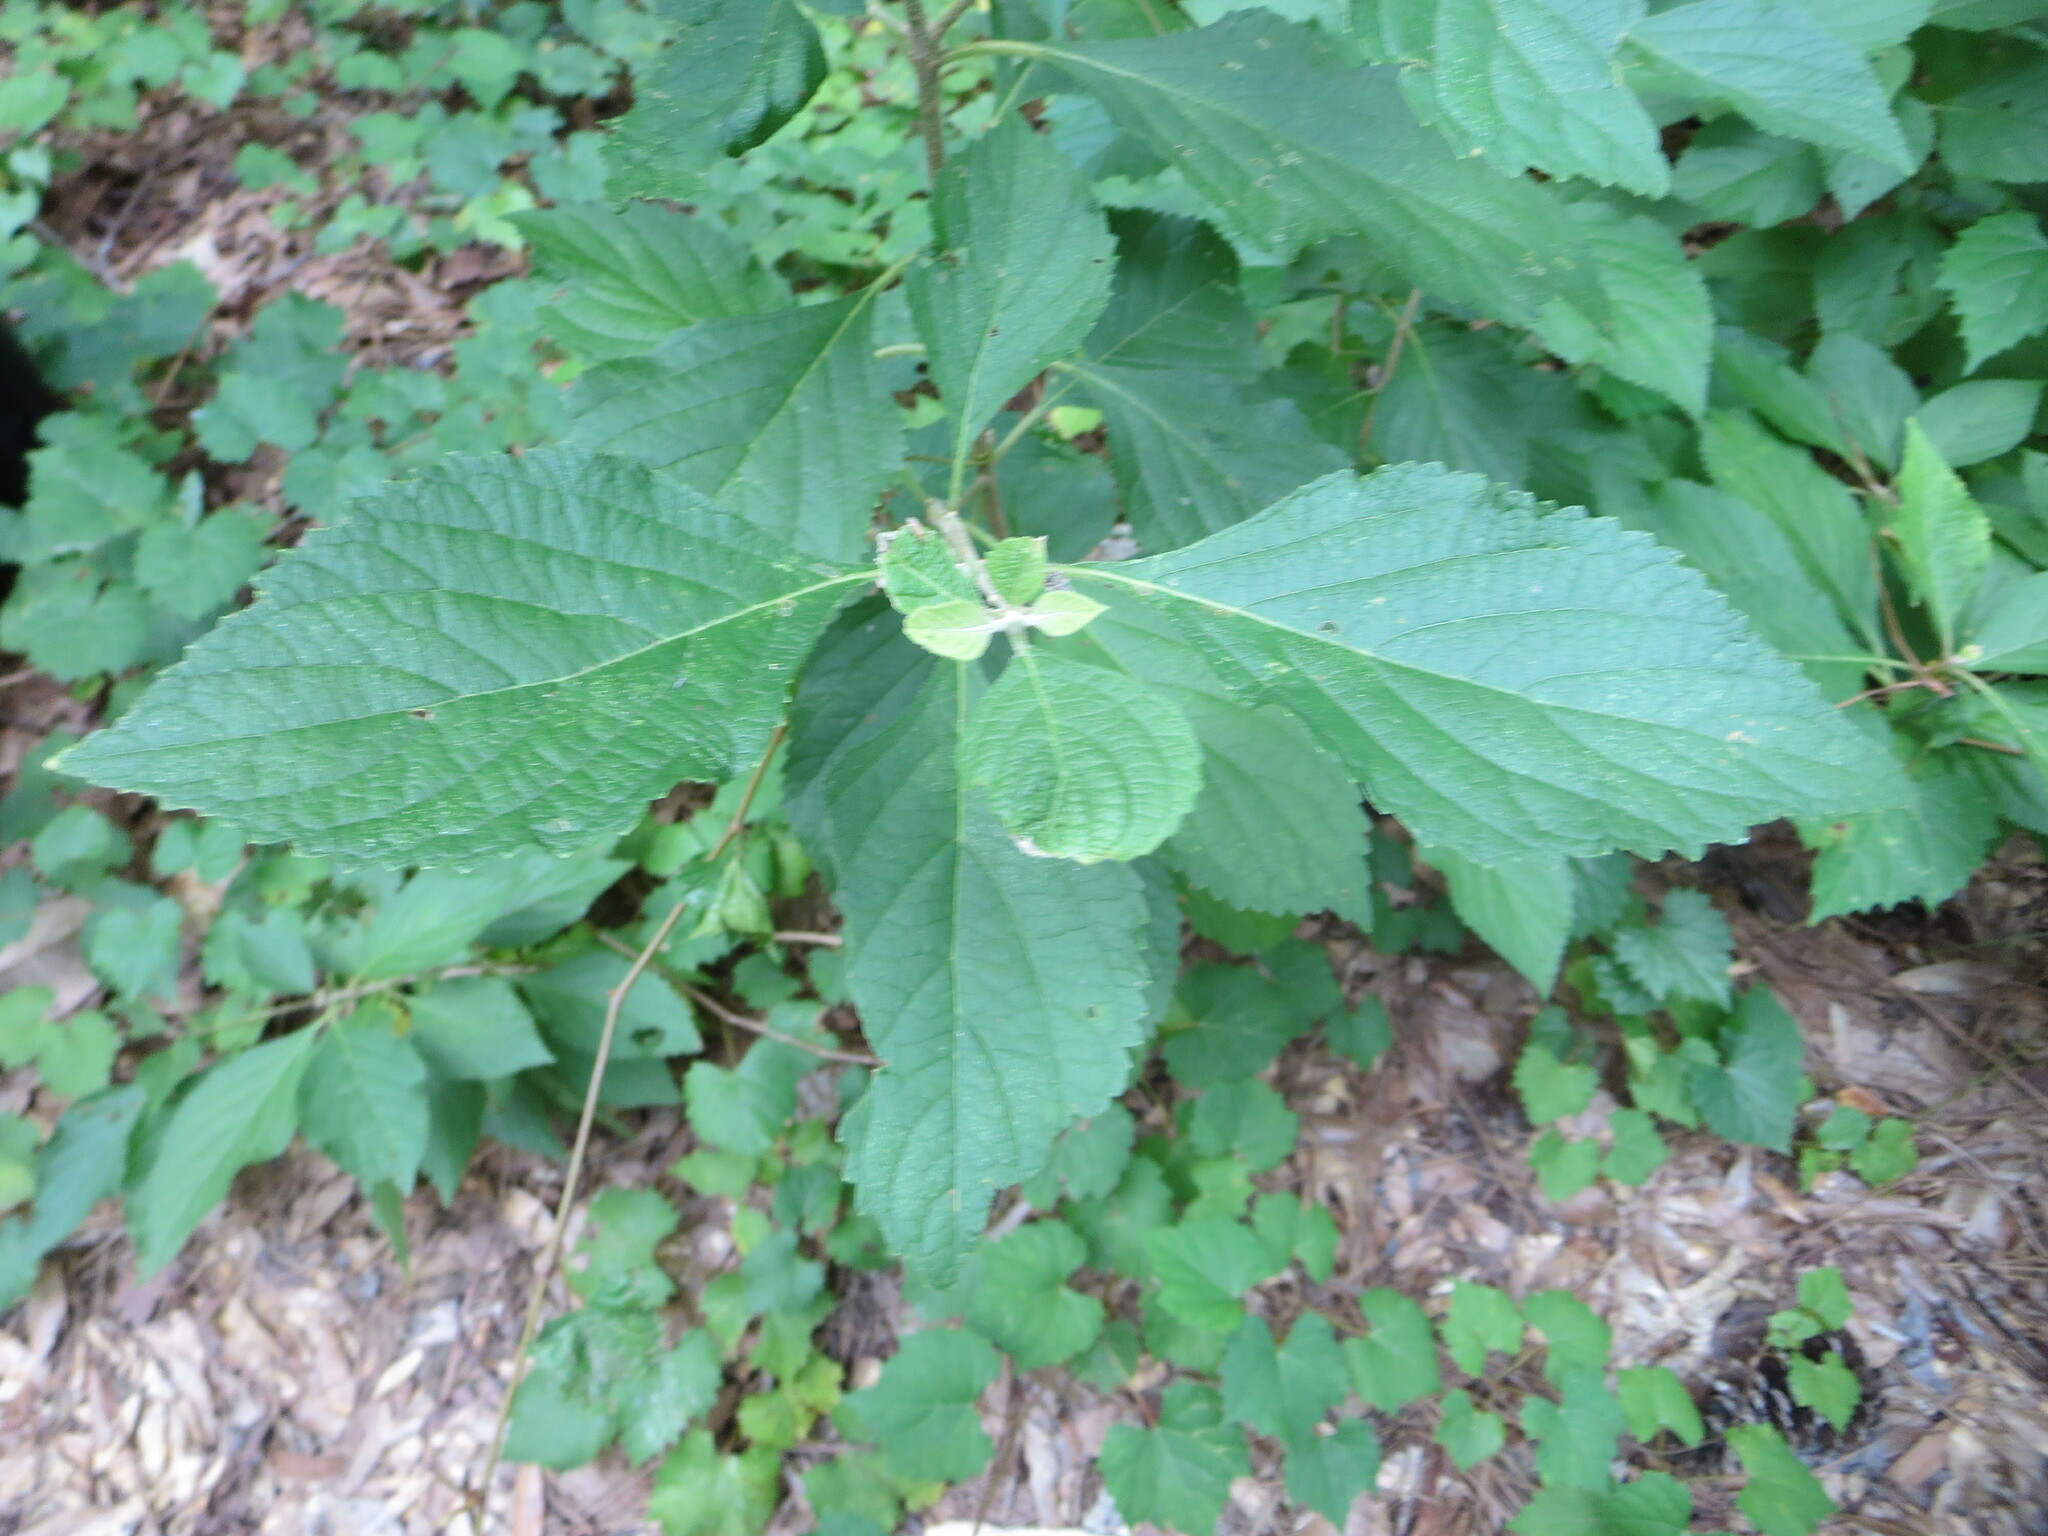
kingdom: Plantae
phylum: Tracheophyta
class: Magnoliopsida
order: Lamiales
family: Lamiaceae
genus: Callicarpa
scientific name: Callicarpa americana
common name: American beautyberry
